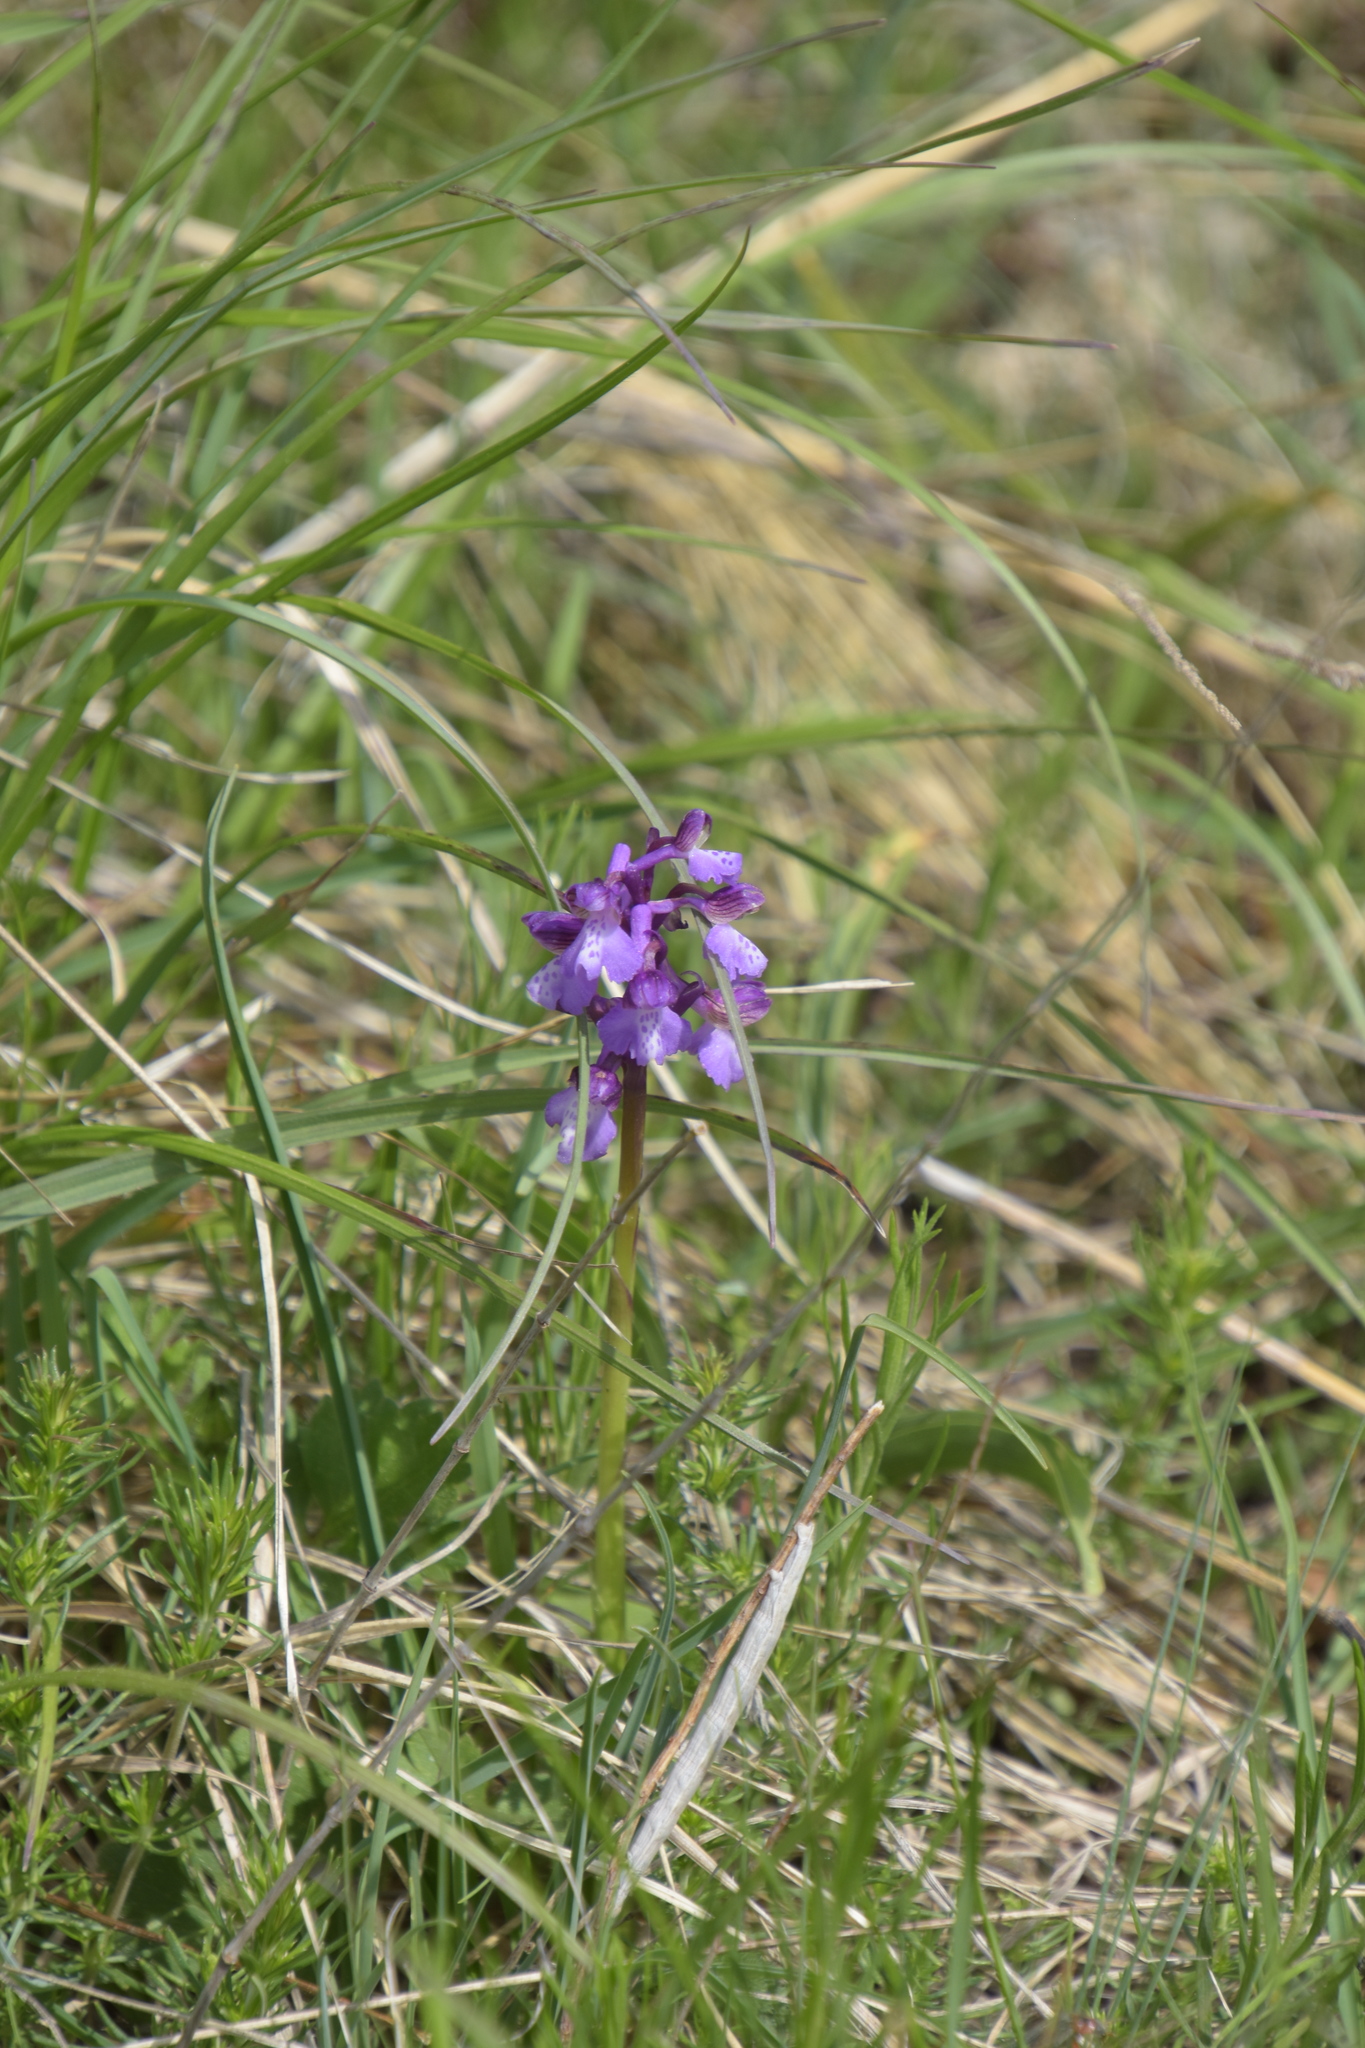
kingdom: Plantae
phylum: Tracheophyta
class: Liliopsida
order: Asparagales
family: Orchidaceae
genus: Anacamptis
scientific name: Anacamptis morio
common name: Green-winged orchid
